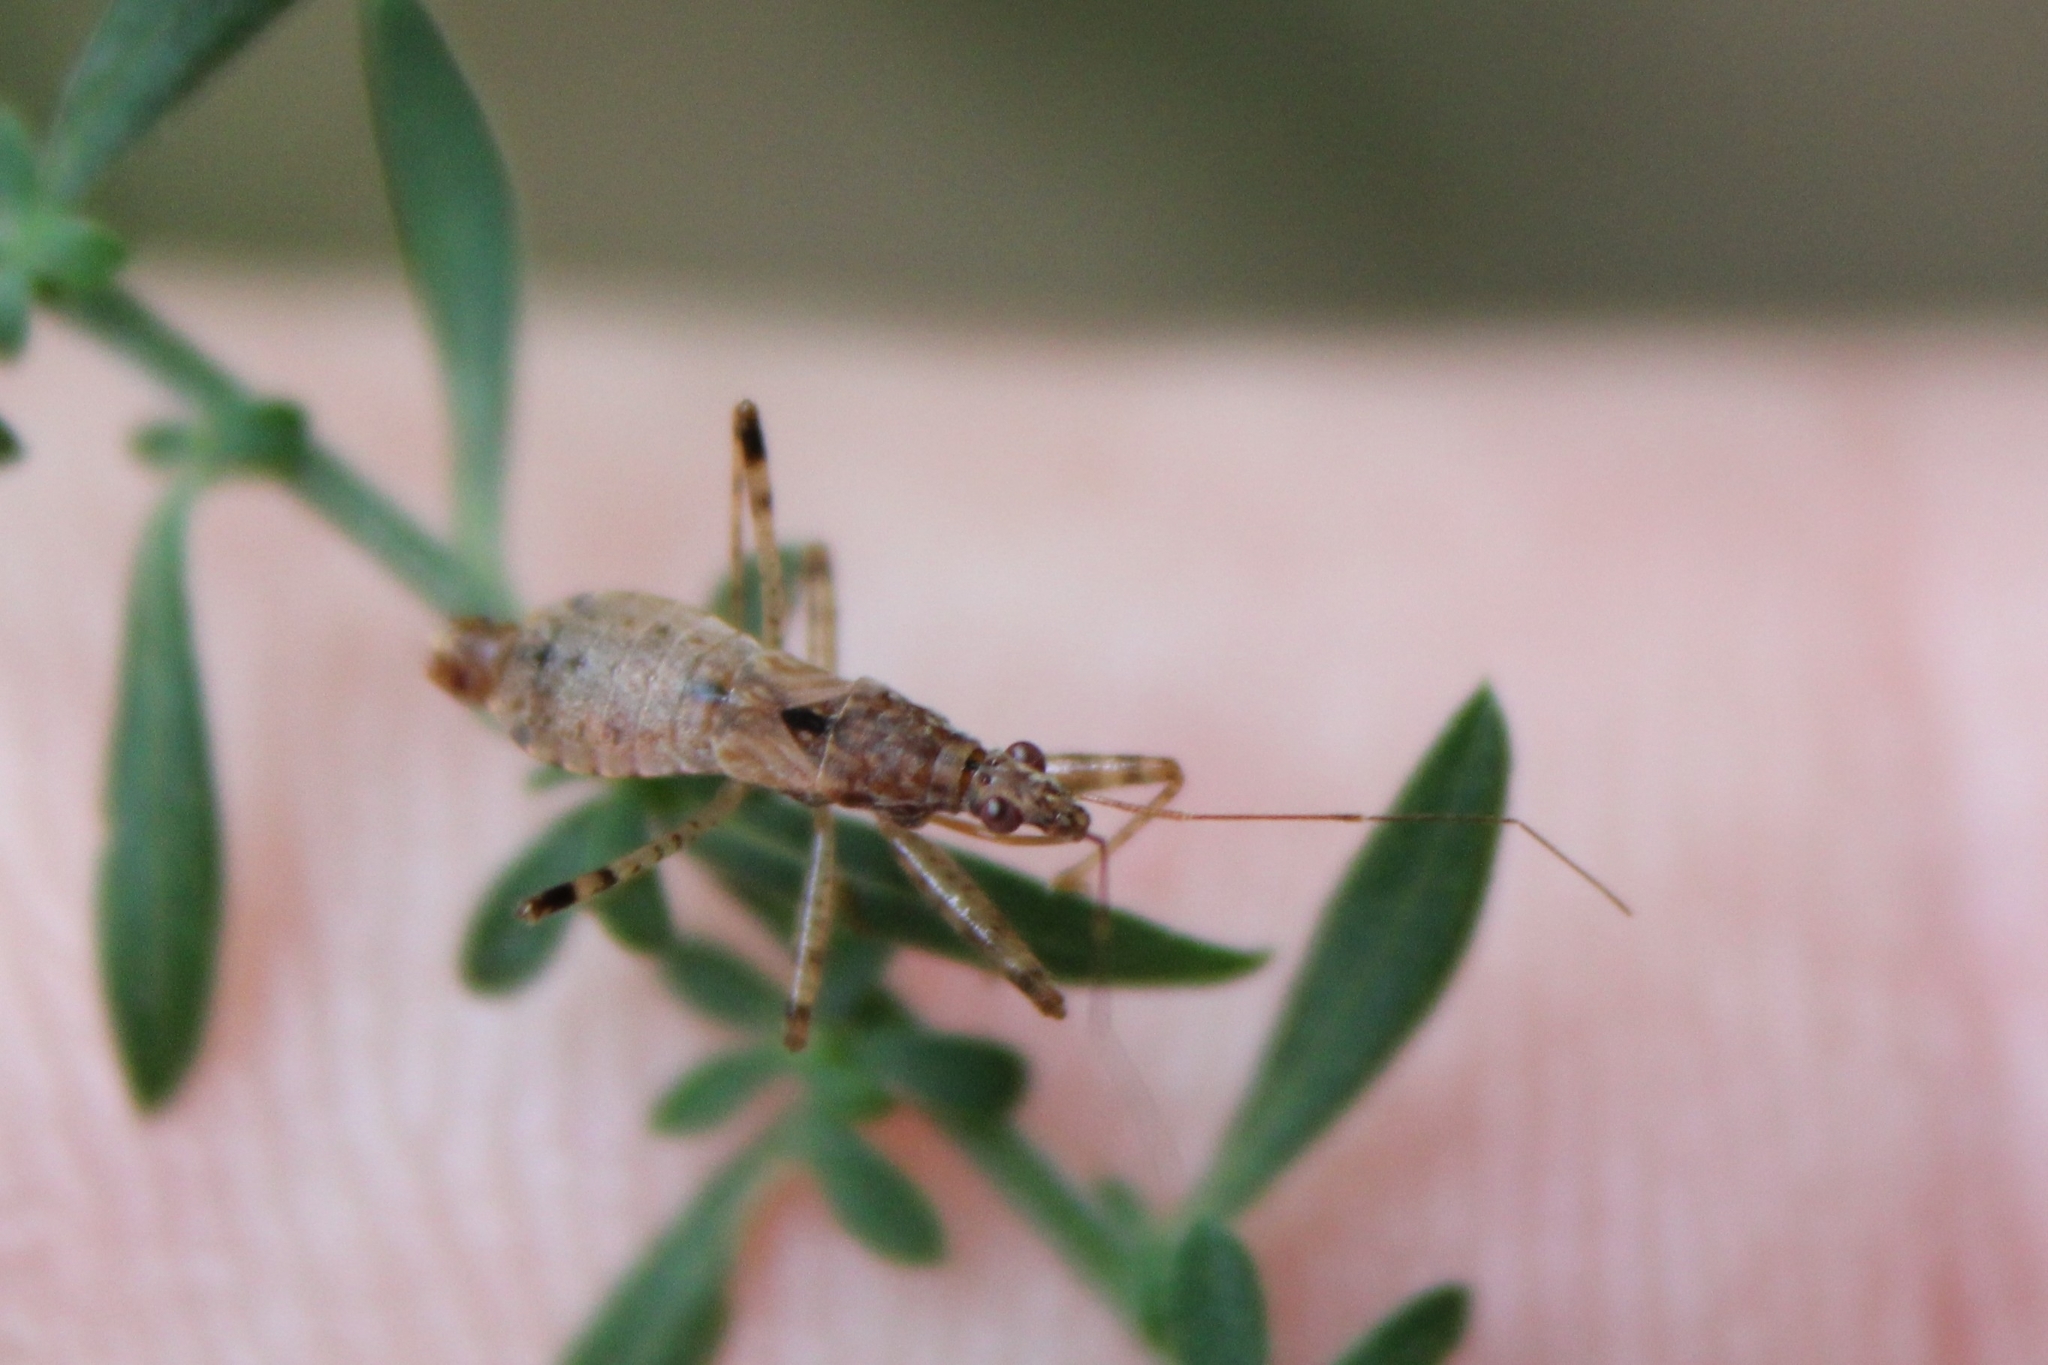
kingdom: Animalia
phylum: Arthropoda
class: Insecta
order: Hemiptera
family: Nabidae
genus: Hoplistoscelis
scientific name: Hoplistoscelis pallescens
